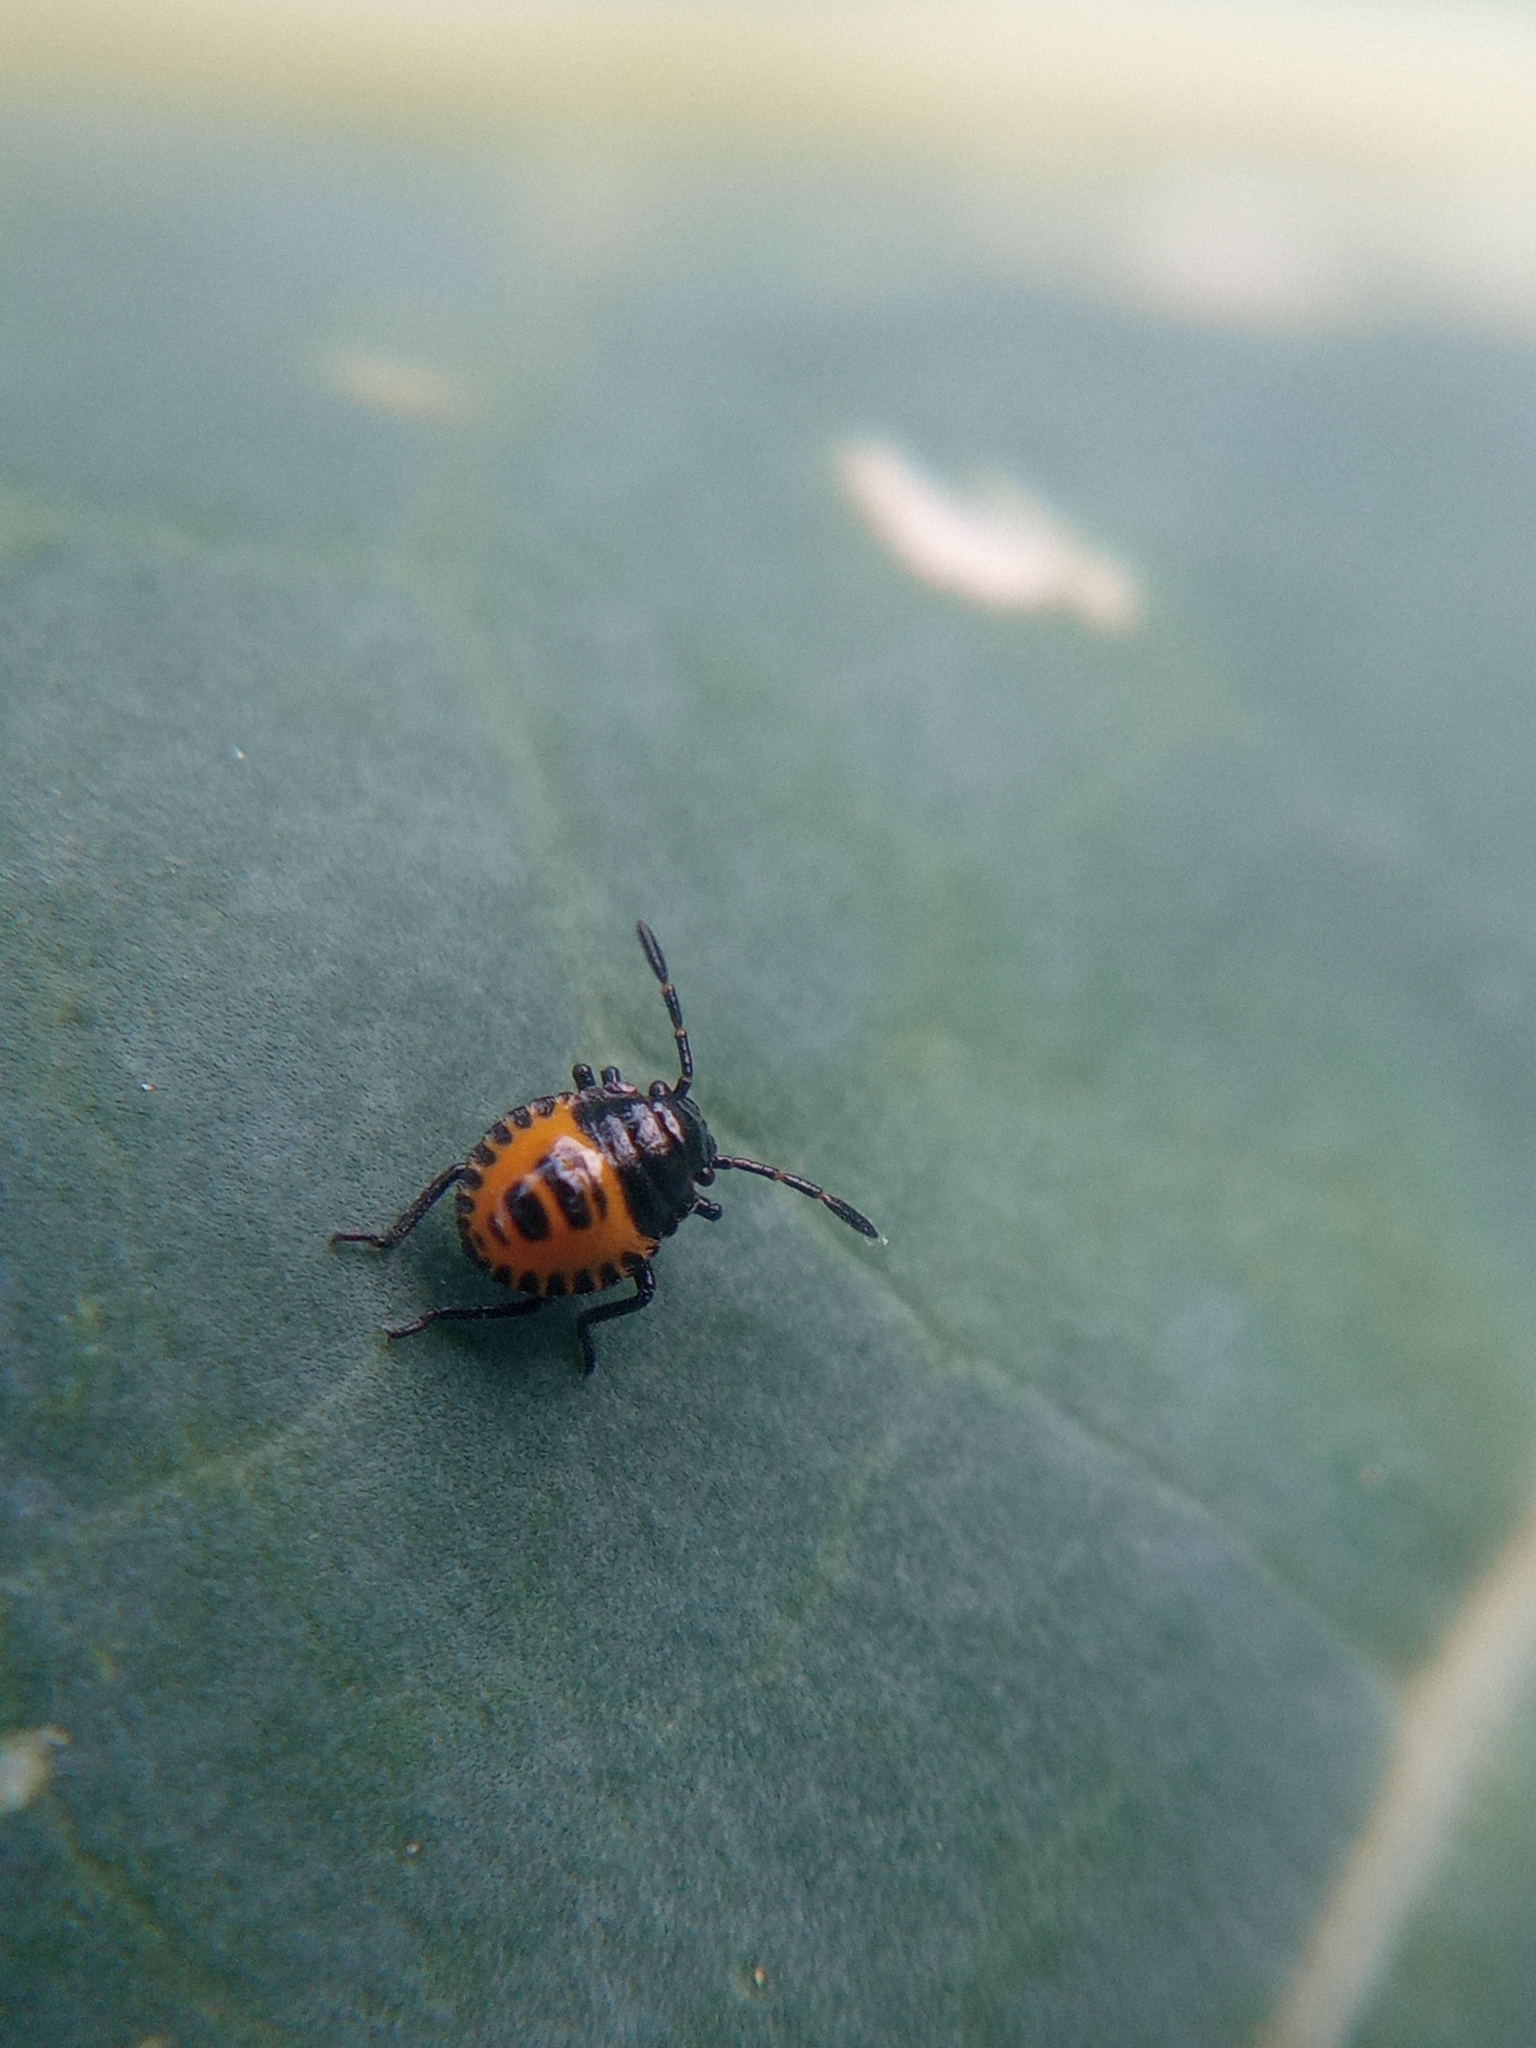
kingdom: Animalia
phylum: Arthropoda
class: Insecta
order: Hemiptera
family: Pentatomidae
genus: Eurydema
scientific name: Eurydema ventralis
